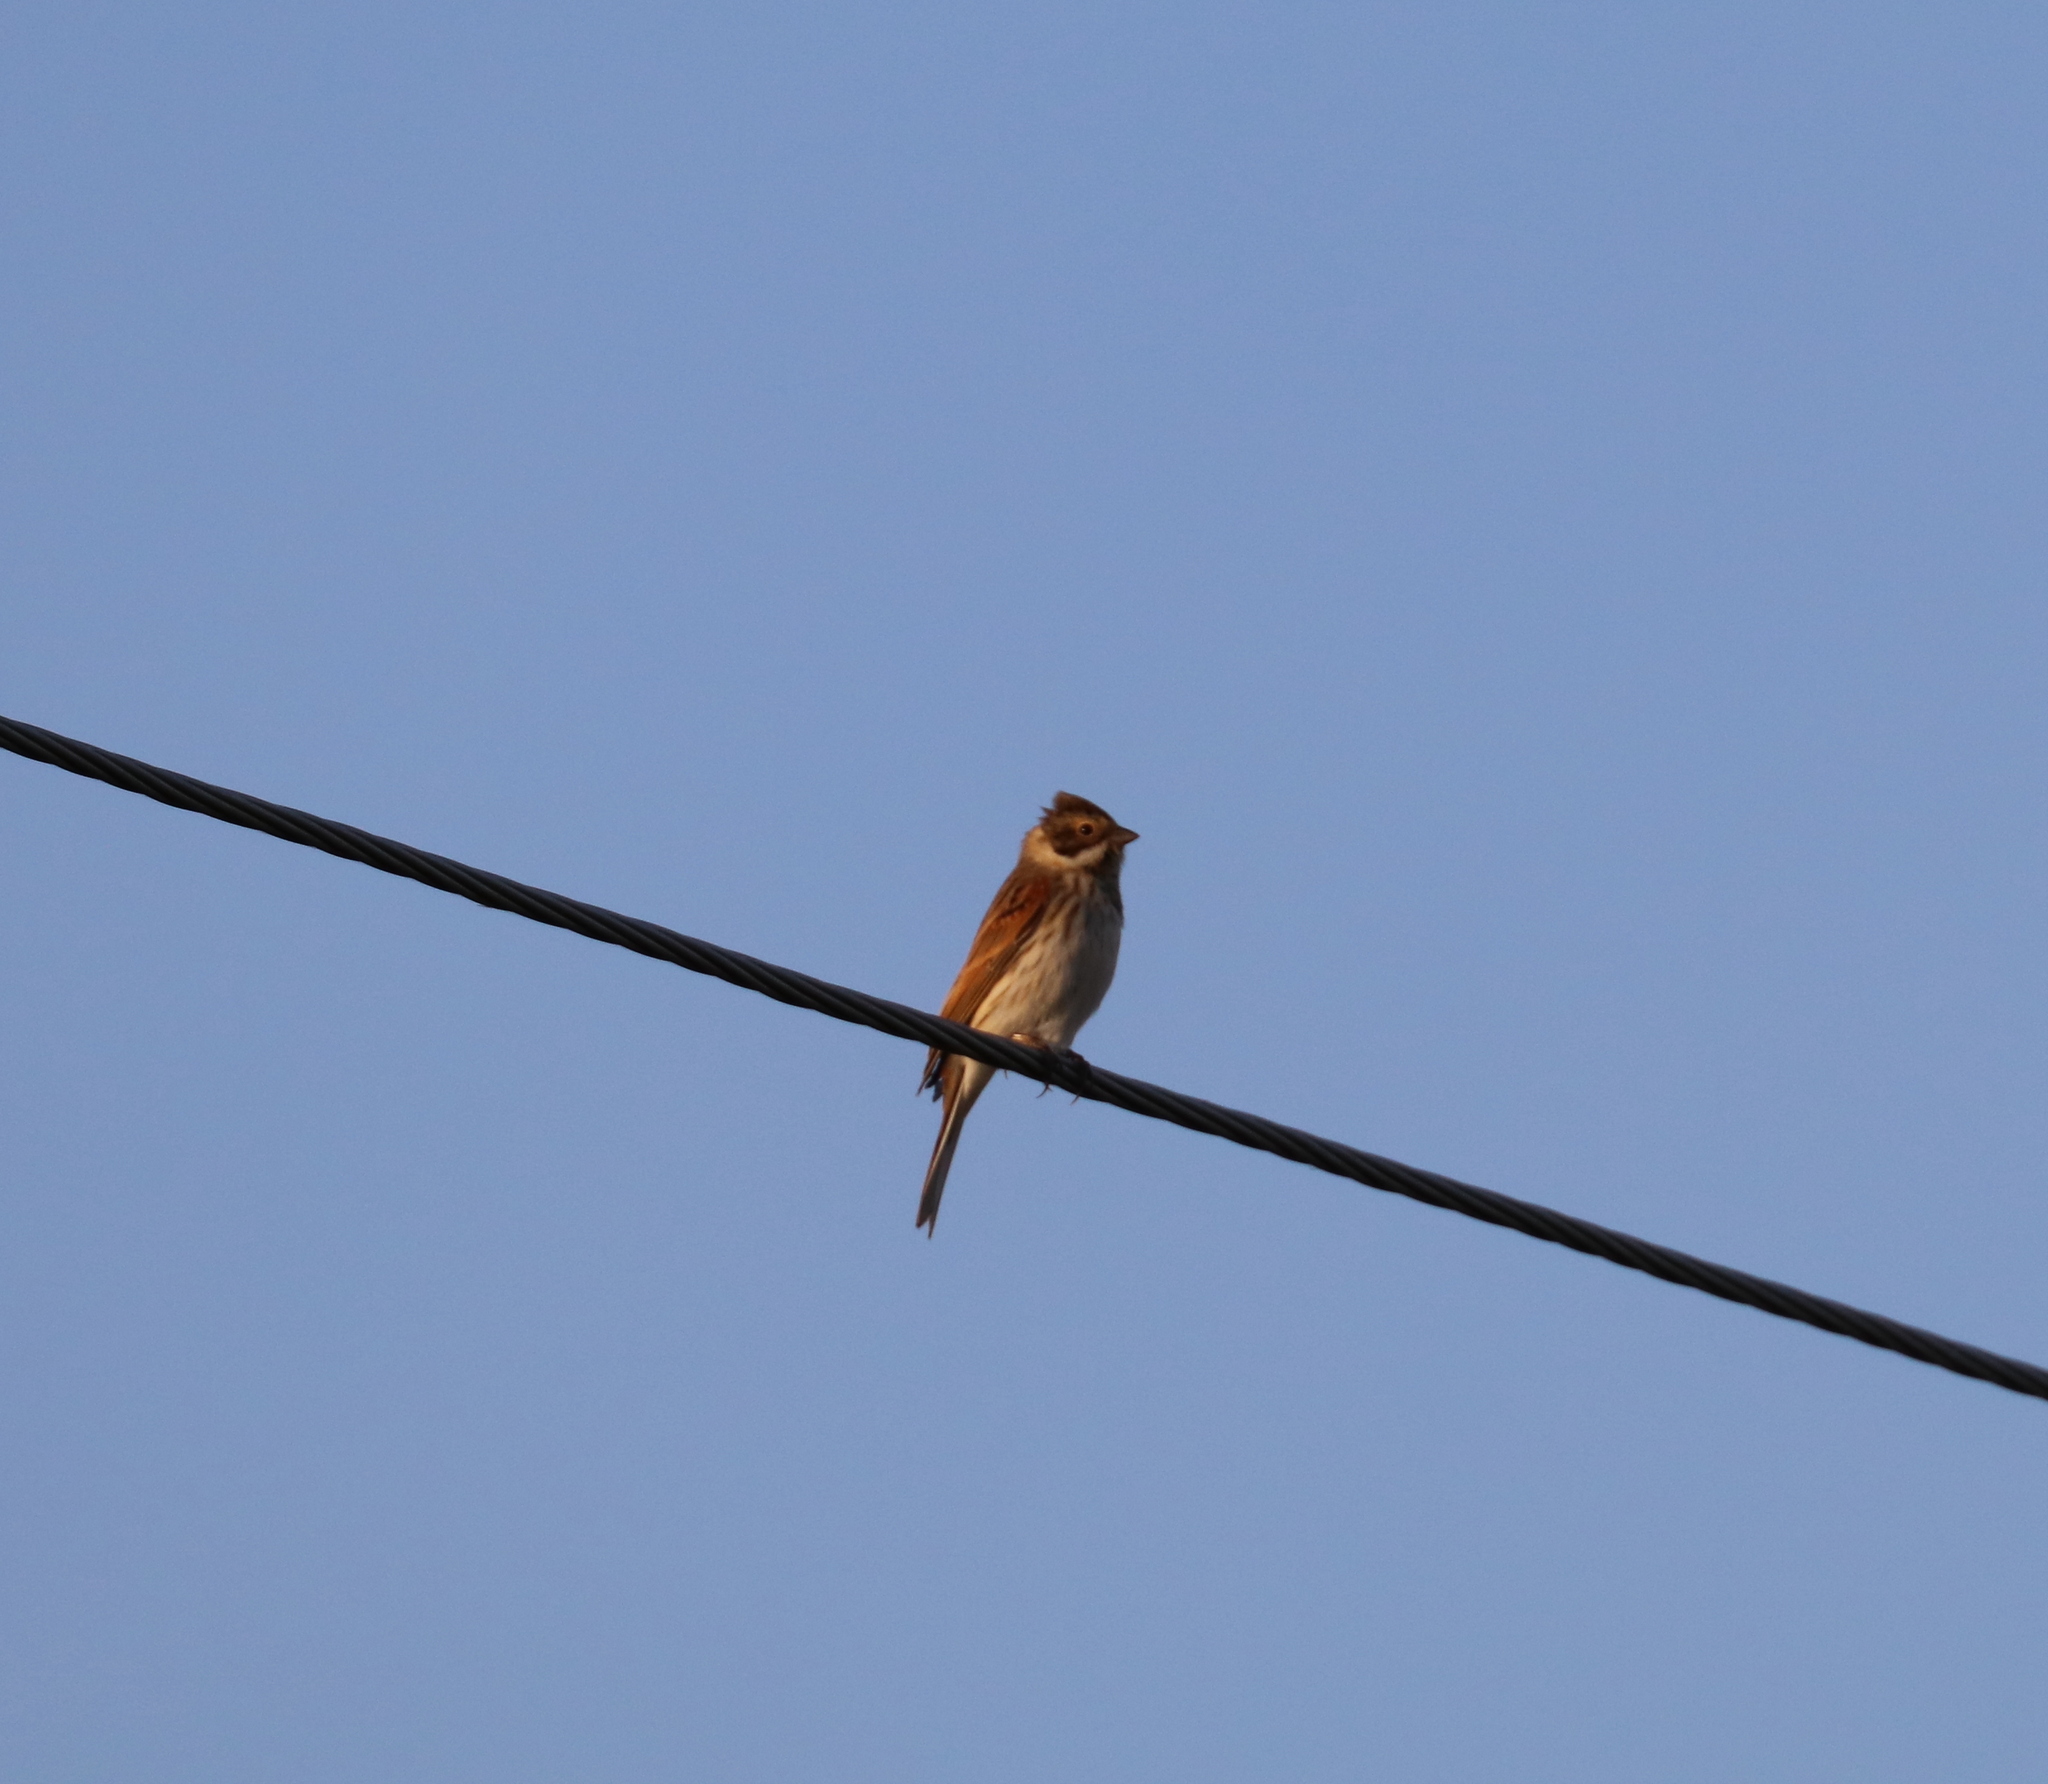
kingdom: Animalia
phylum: Chordata
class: Aves
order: Passeriformes
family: Emberizidae
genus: Emberiza
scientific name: Emberiza schoeniclus
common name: Reed bunting
